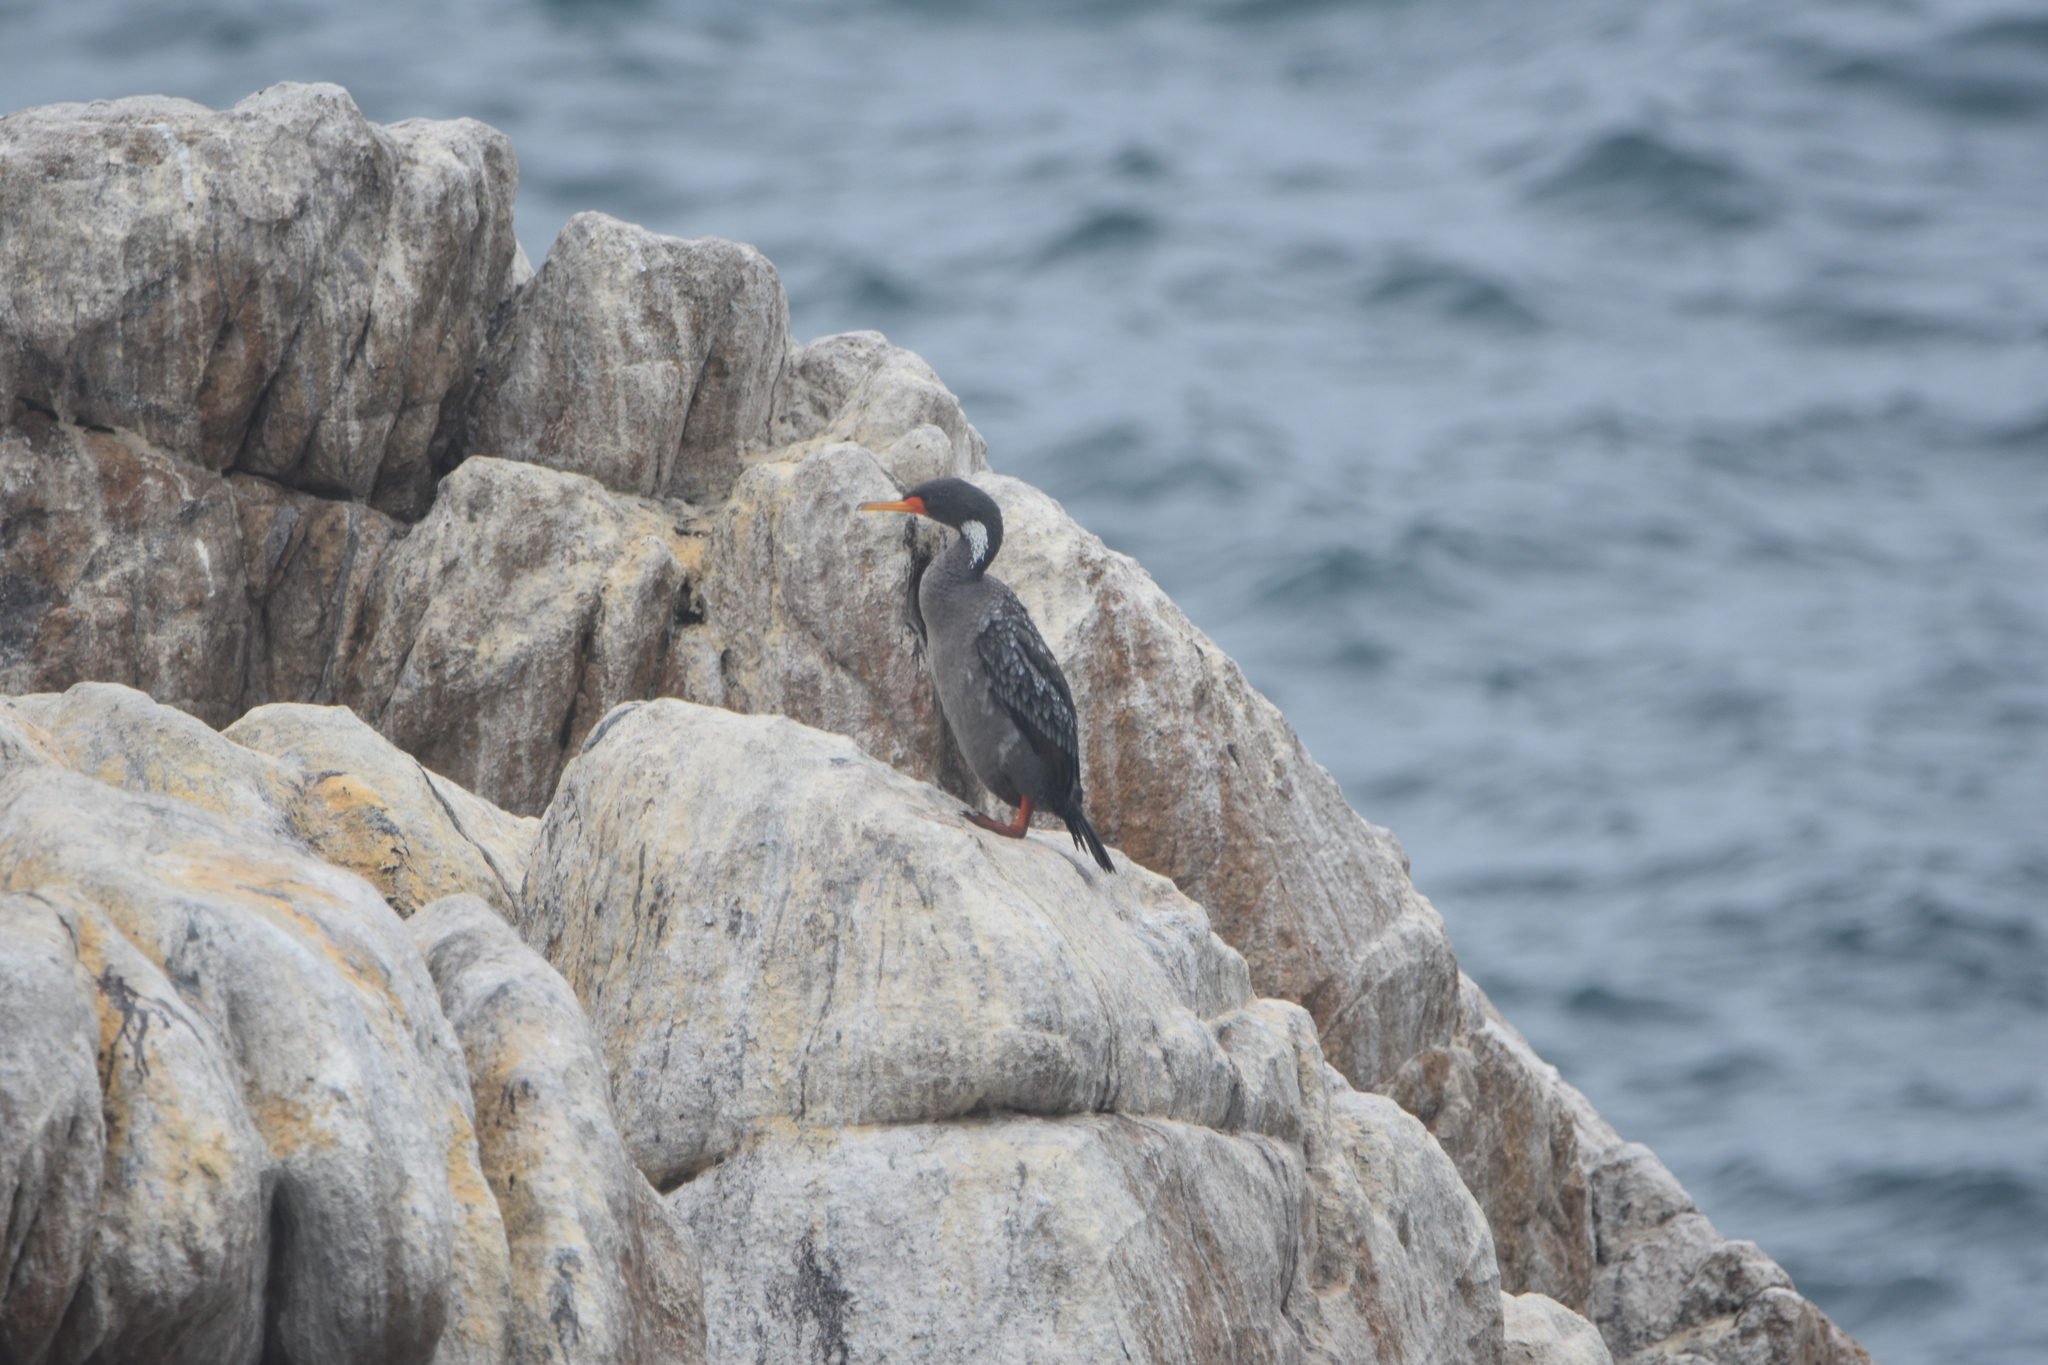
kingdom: Animalia
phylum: Chordata
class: Aves
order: Suliformes
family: Phalacrocoracidae
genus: Phalacrocorax
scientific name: Phalacrocorax gaimardi
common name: Red-legged cormorant
